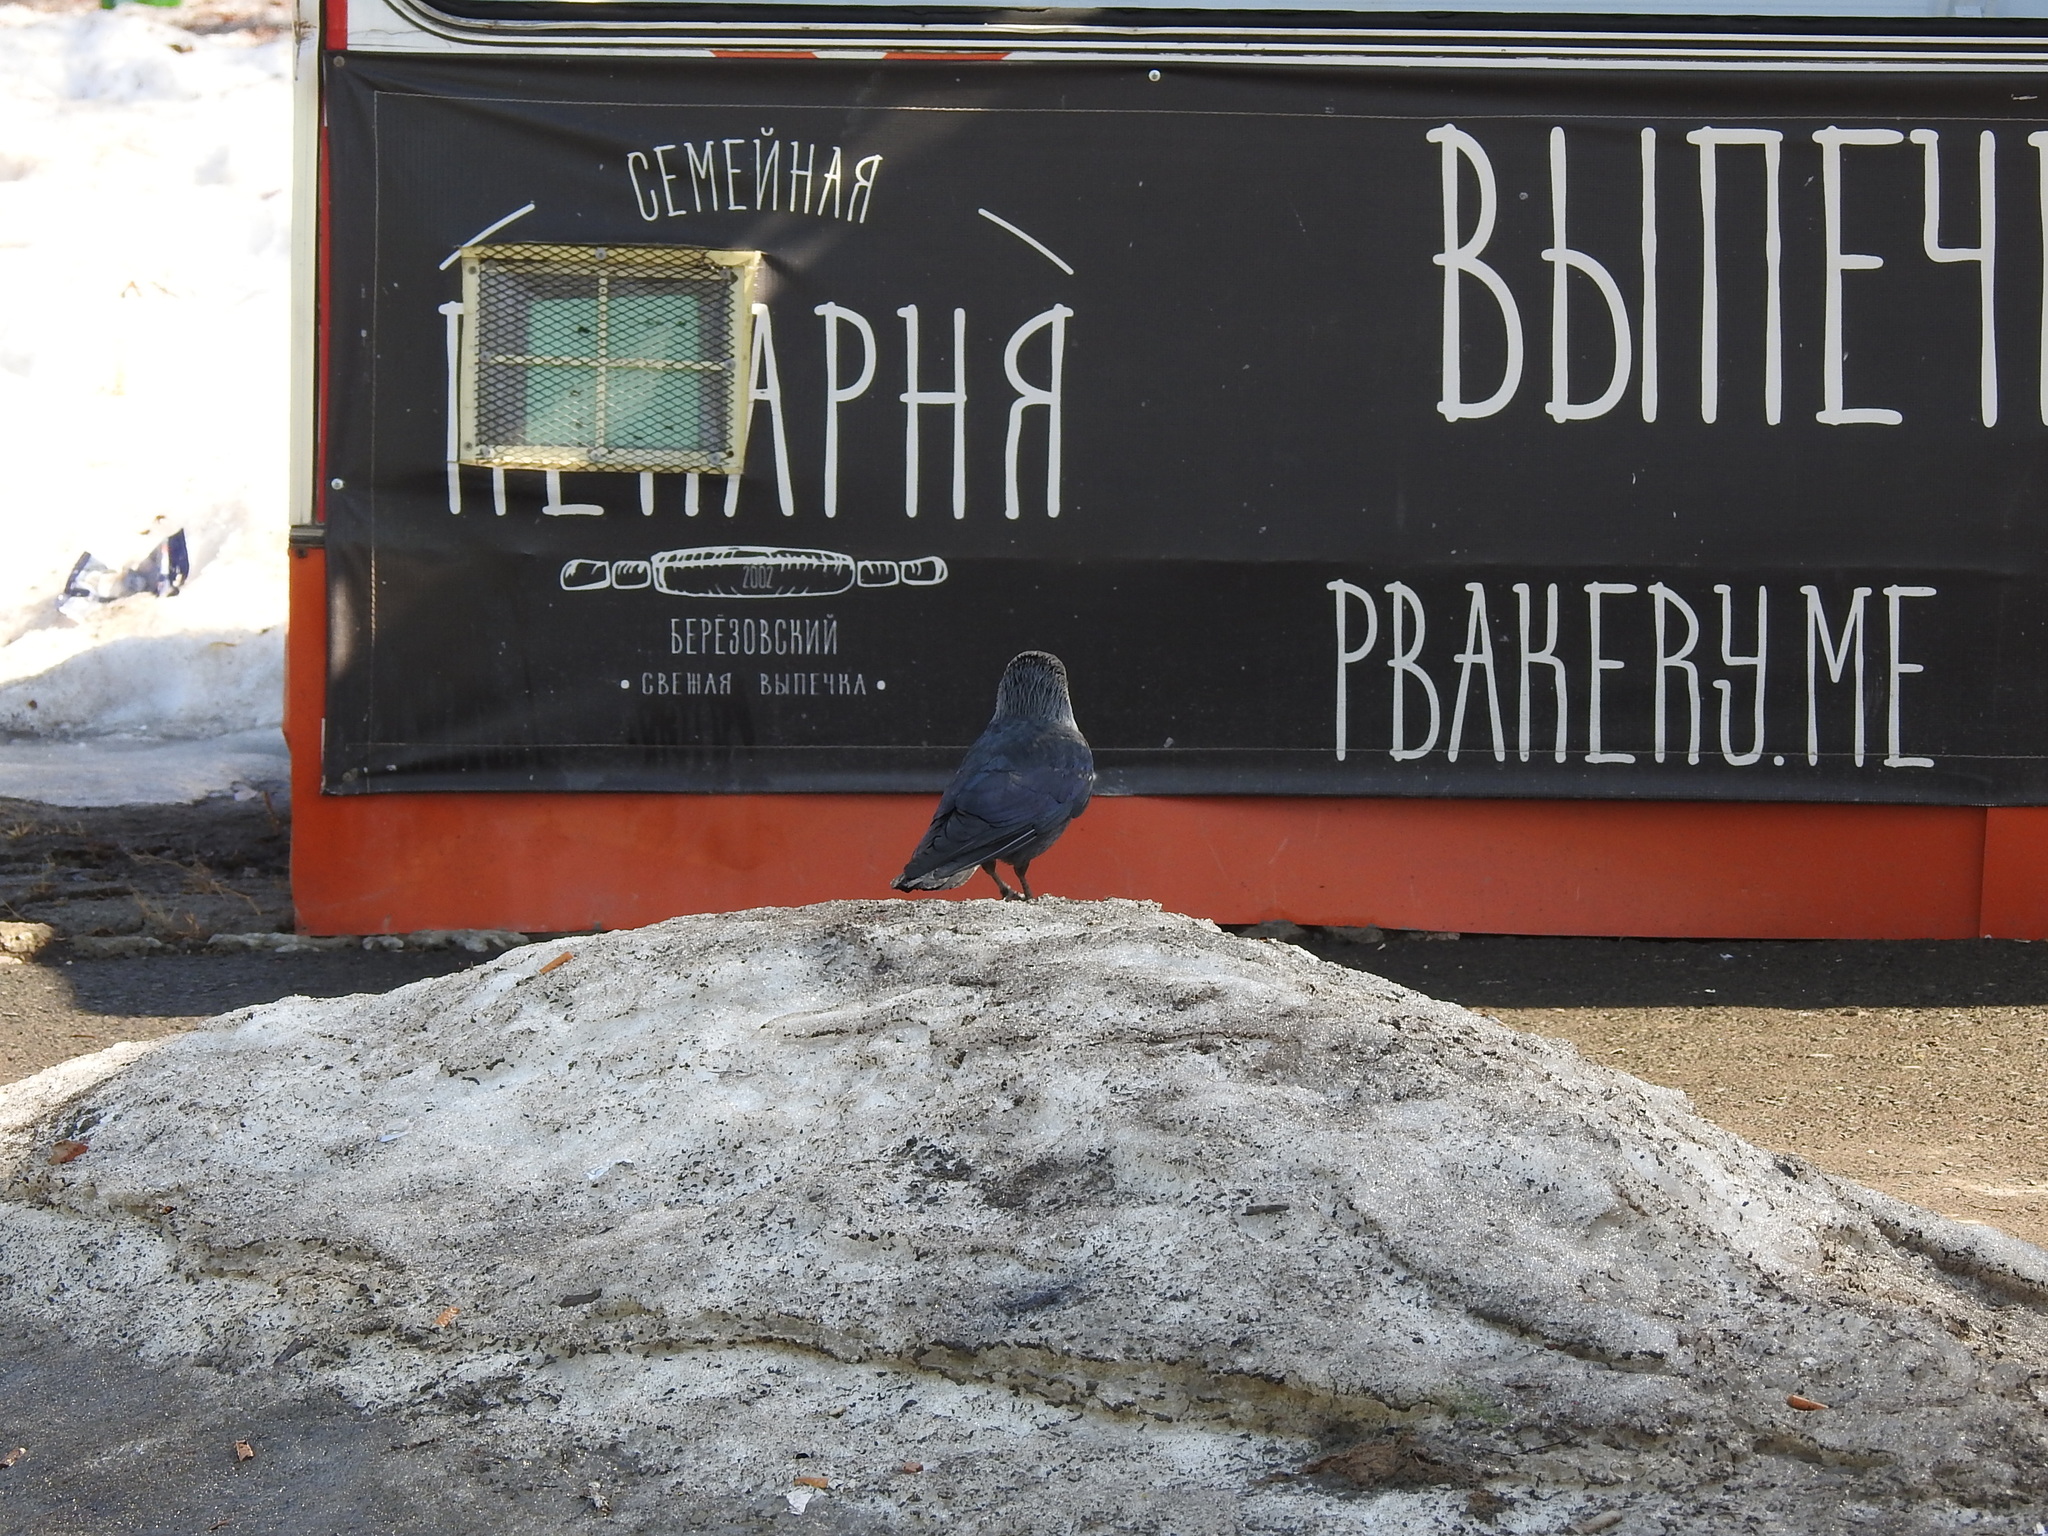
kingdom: Animalia
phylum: Chordata
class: Aves
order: Passeriformes
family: Corvidae
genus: Coloeus
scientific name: Coloeus monedula
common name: Western jackdaw
